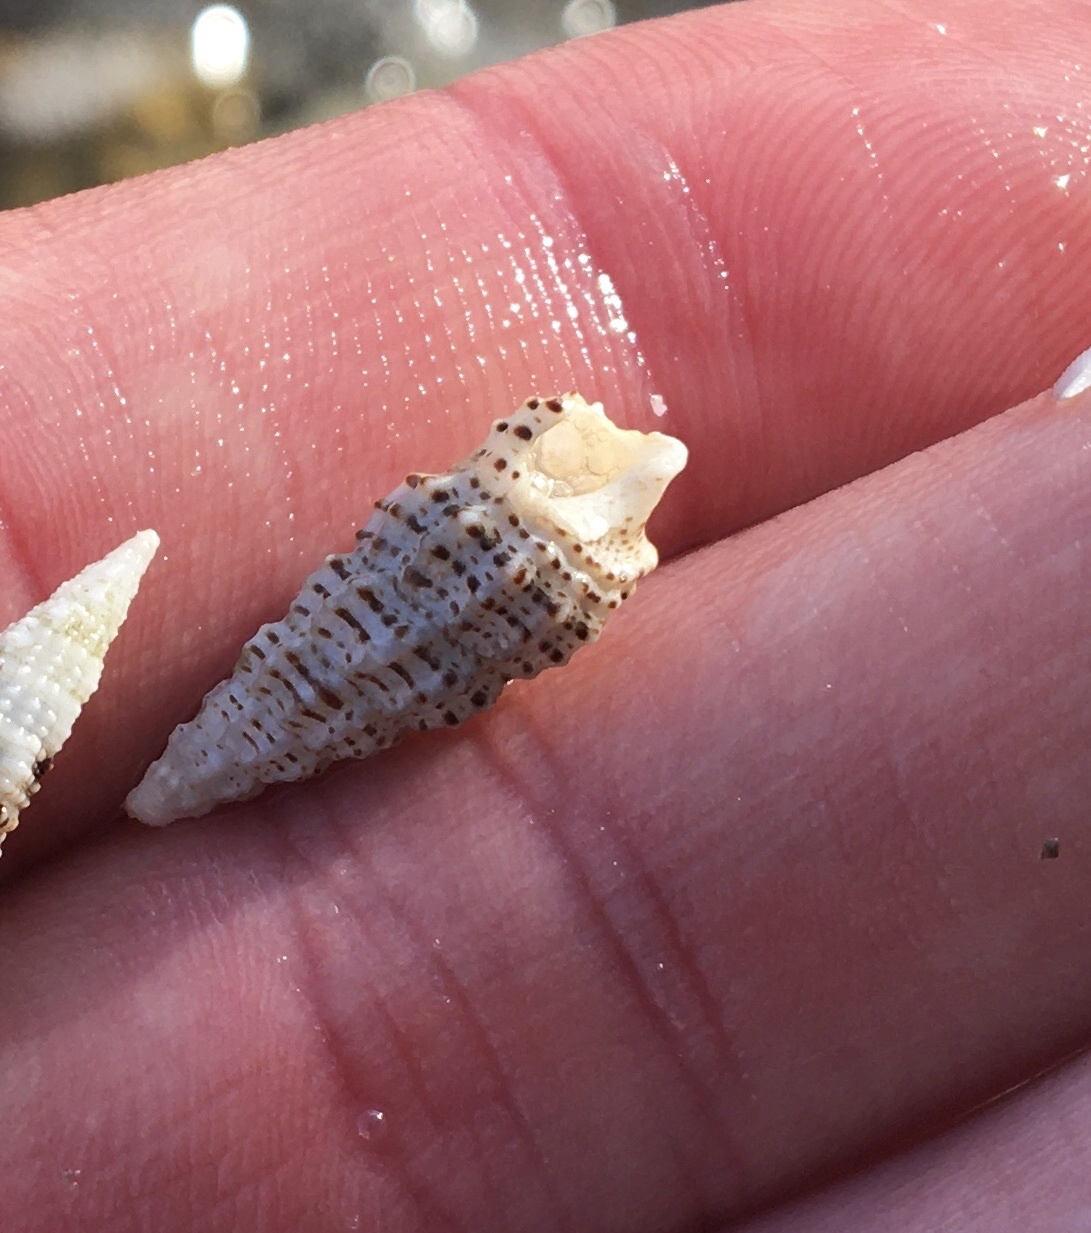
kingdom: Animalia
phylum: Mollusca
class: Gastropoda
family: Cerithiidae
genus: Cerithium
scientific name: Cerithium muscarum
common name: Fly-specked cerith
